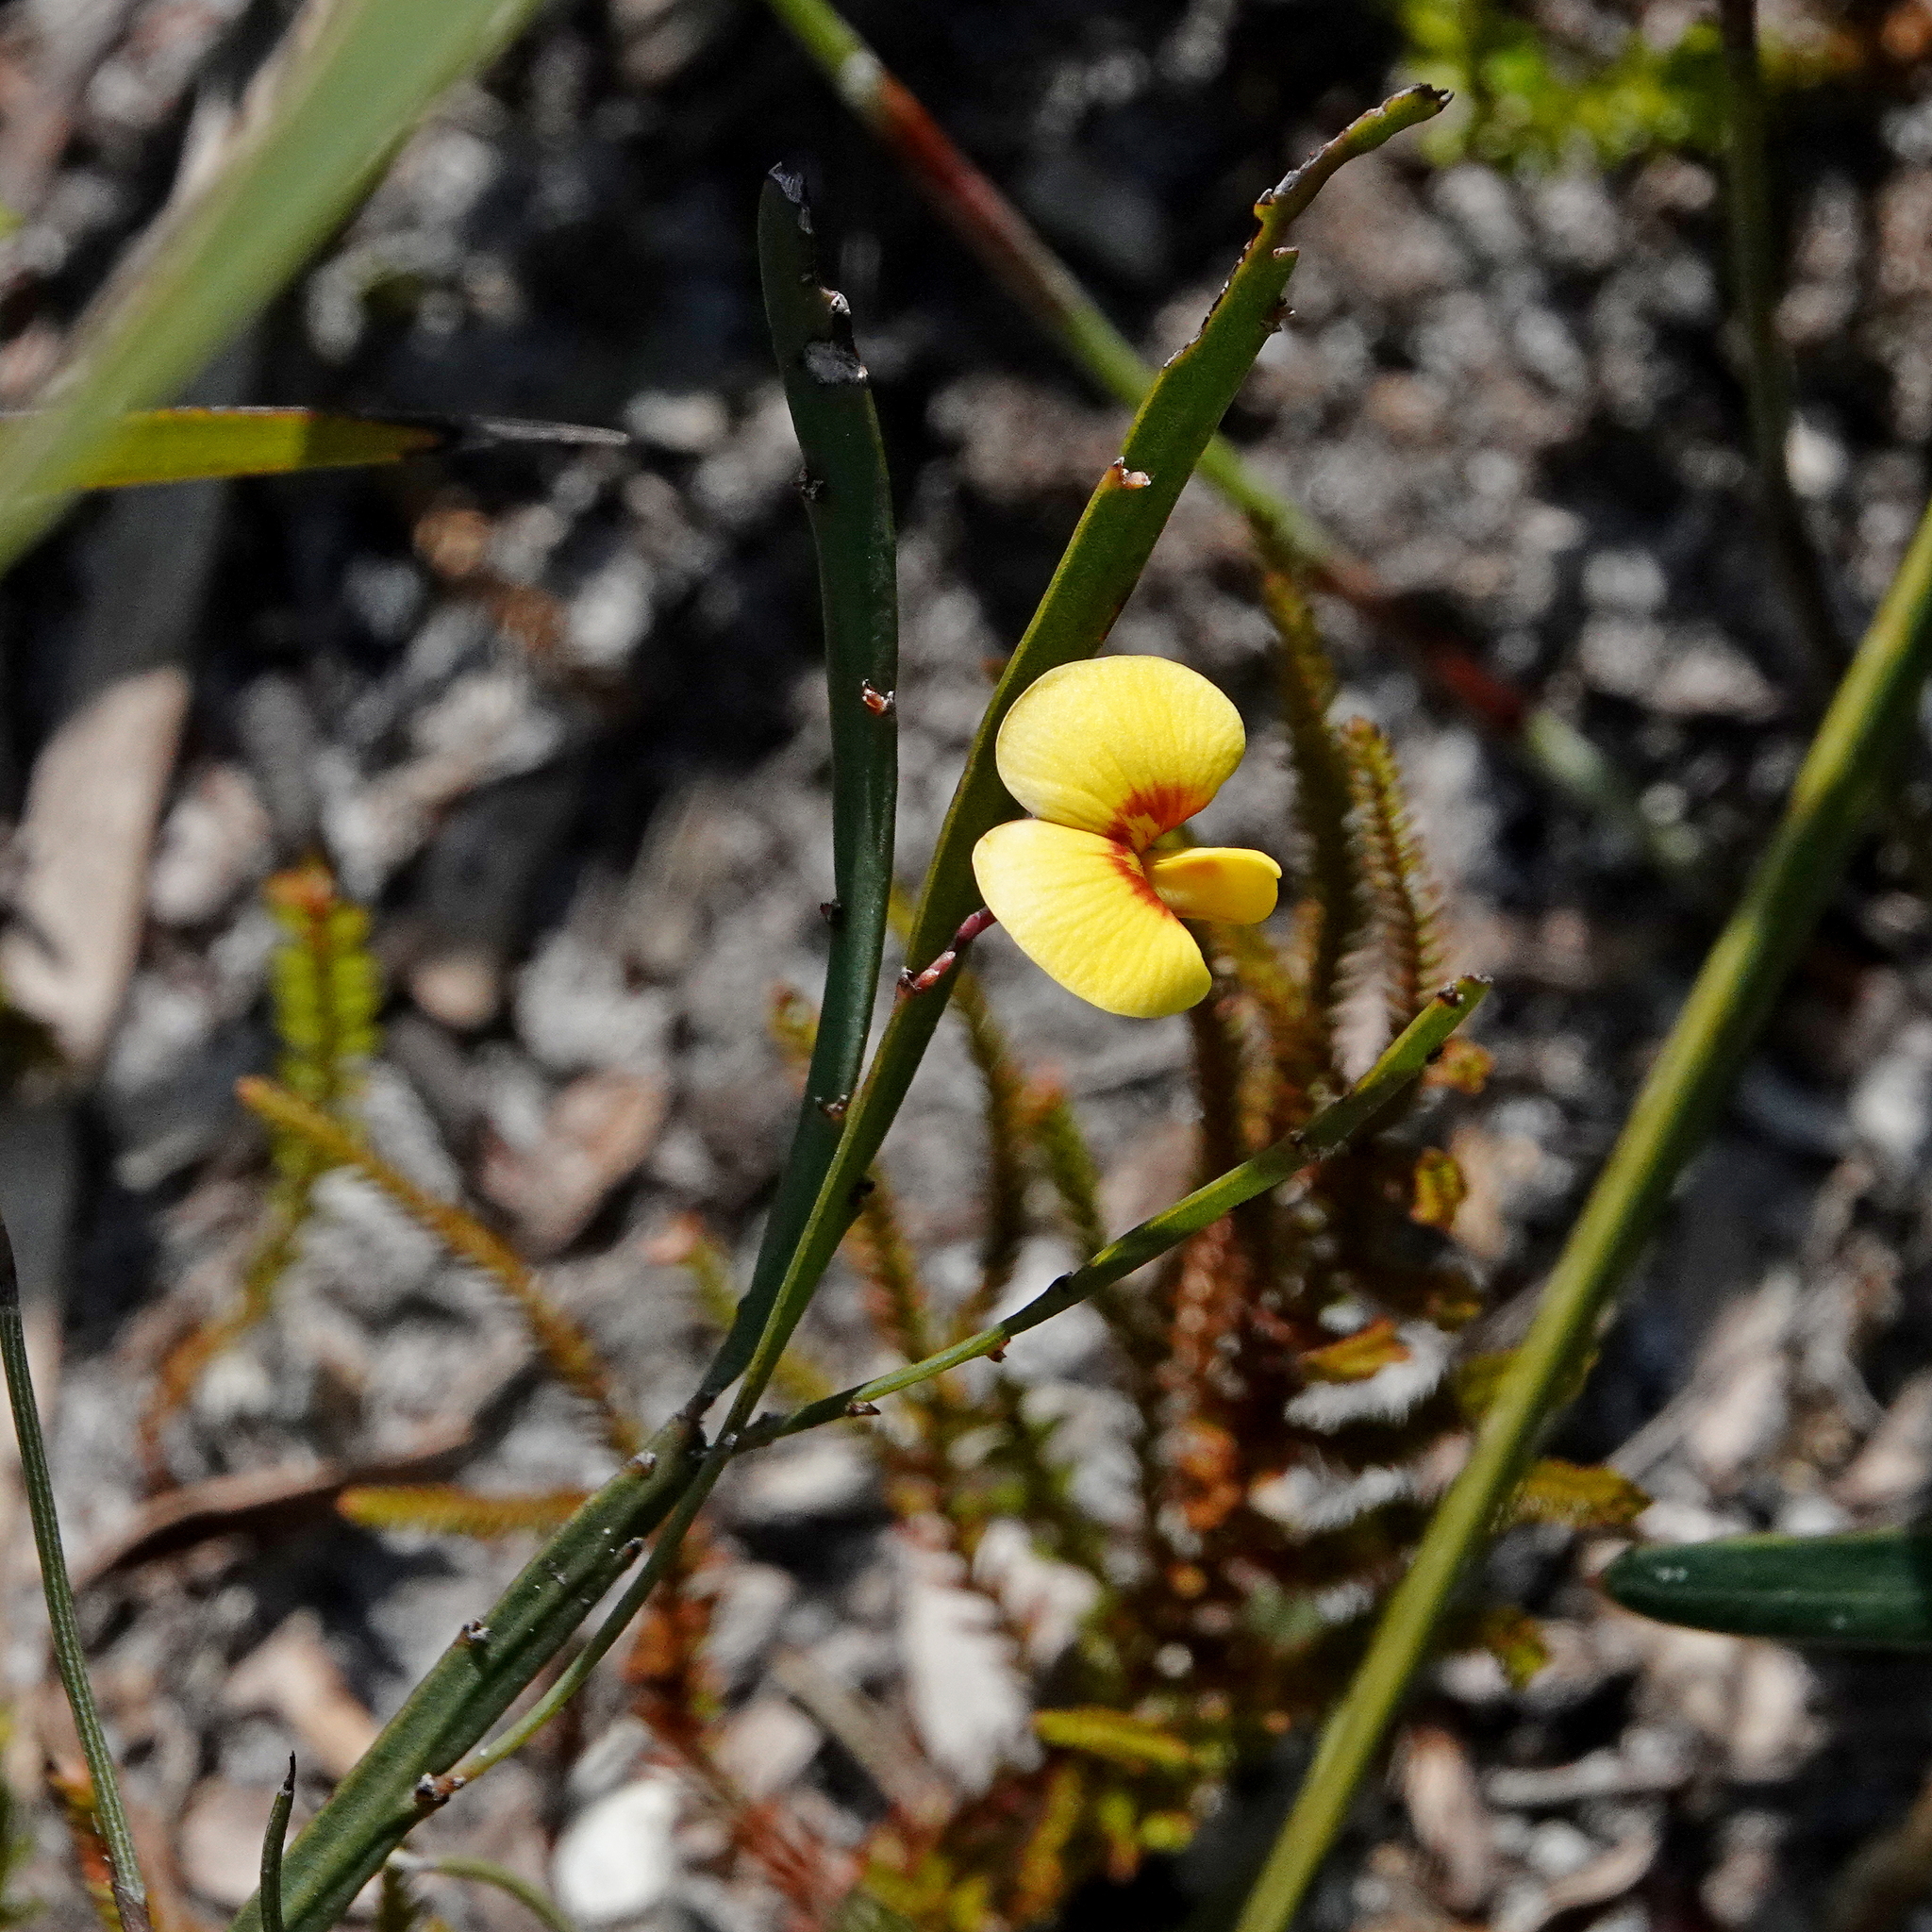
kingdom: Plantae
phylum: Tracheophyta
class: Magnoliopsida
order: Fabales
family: Fabaceae
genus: Bossiaea
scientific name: Bossiaea ensata
